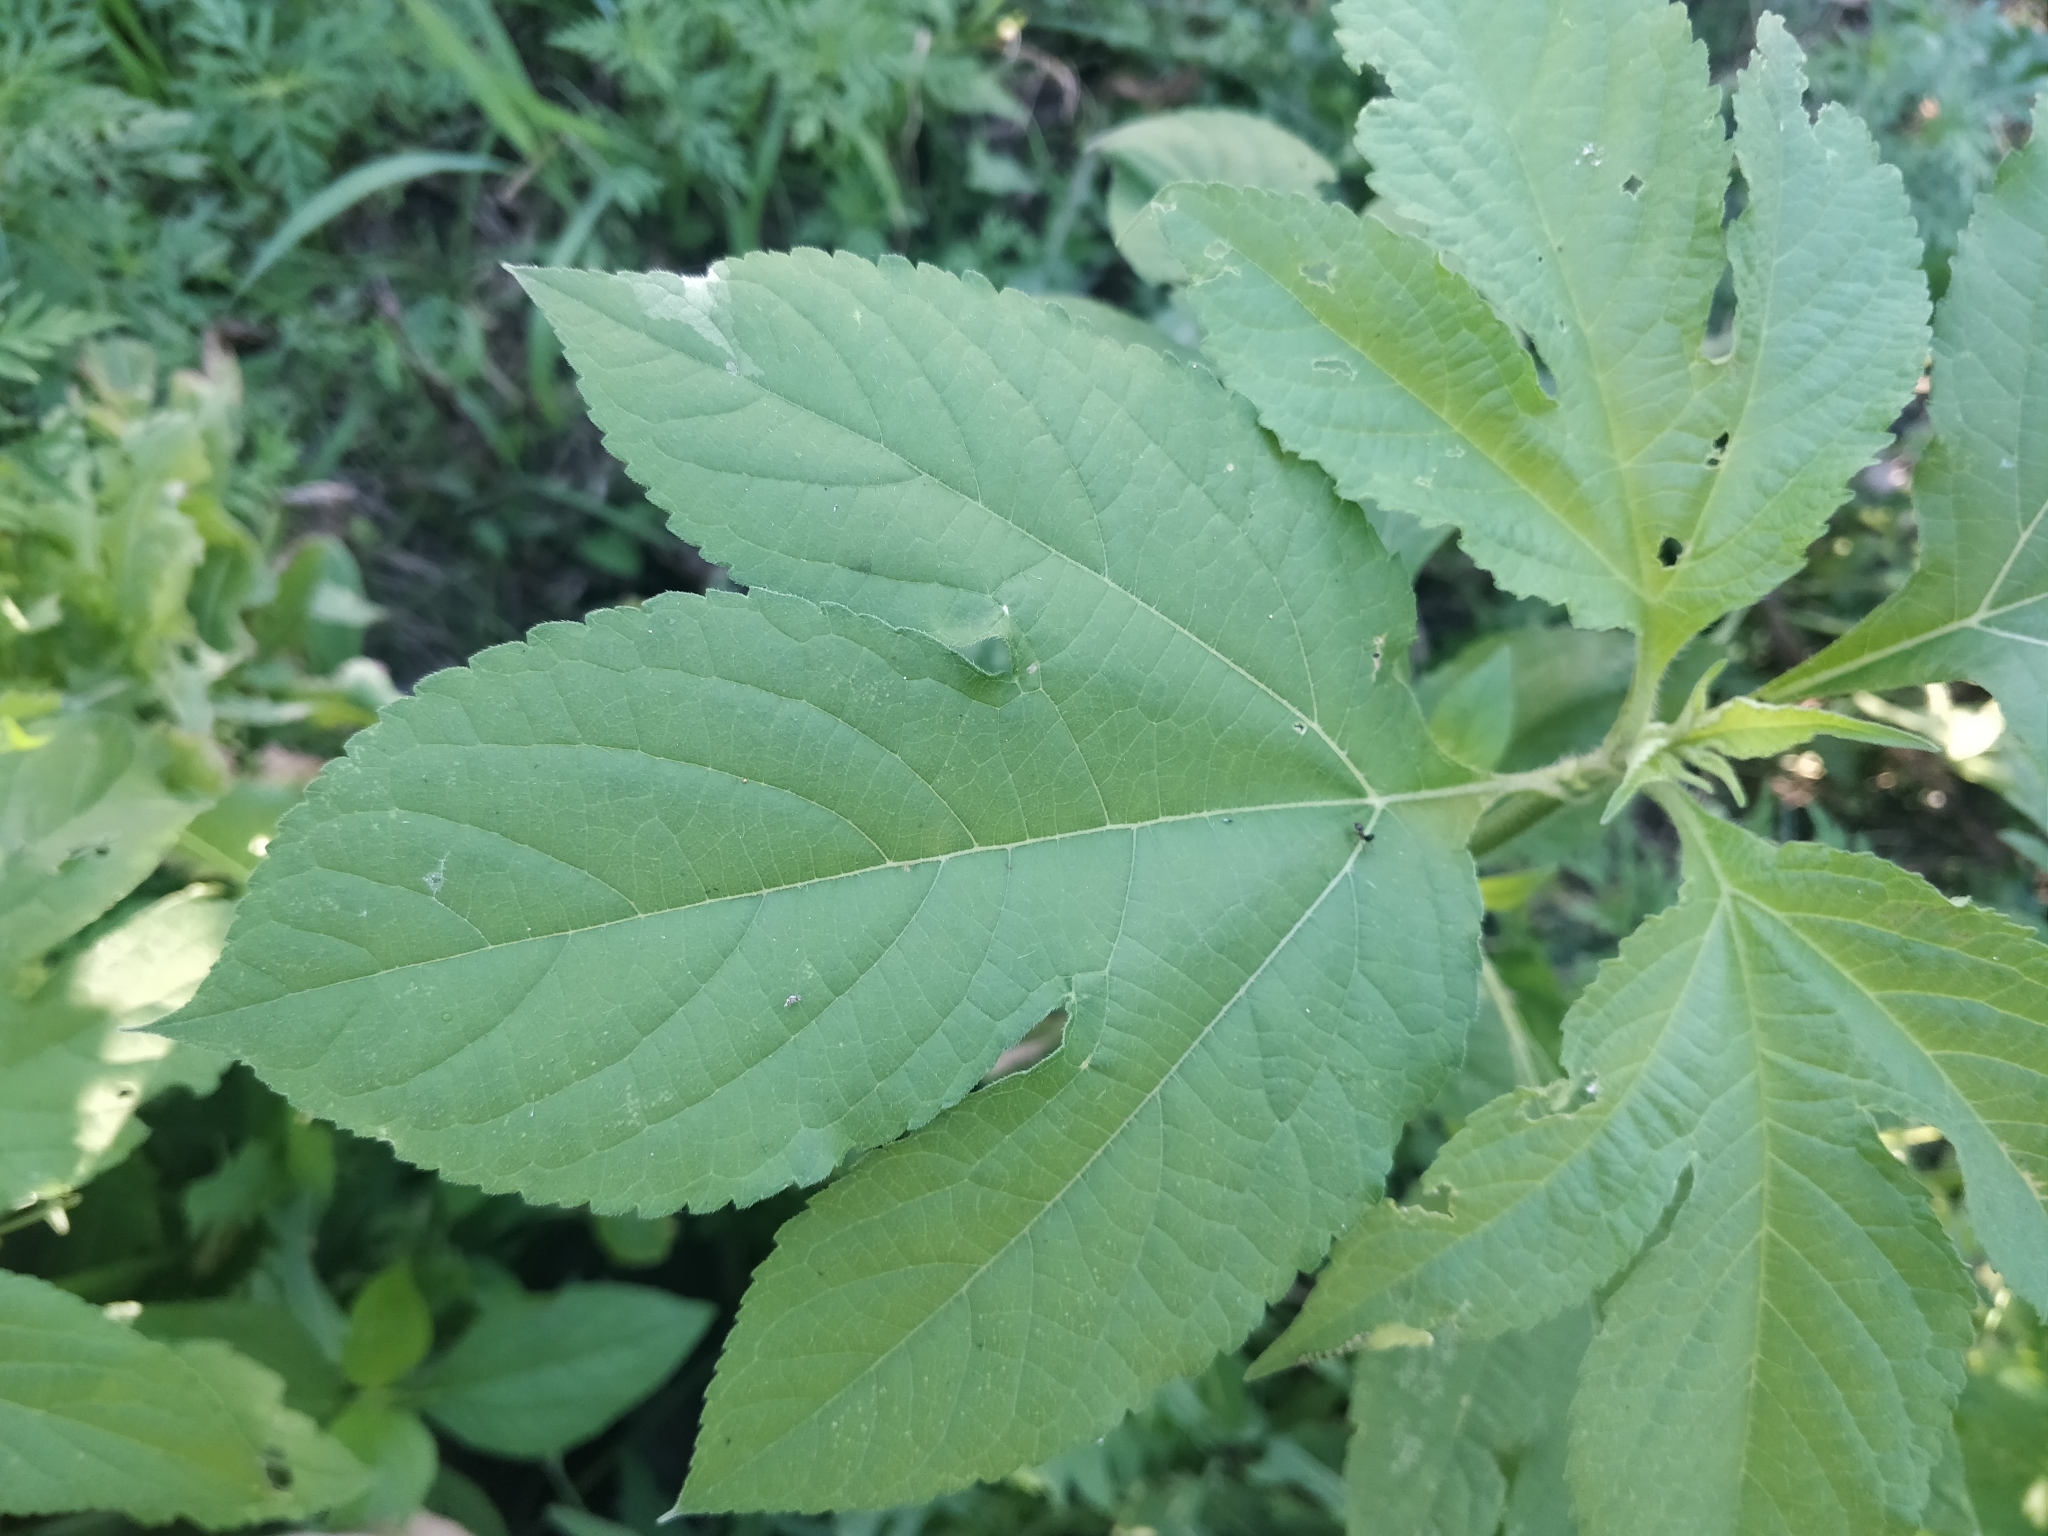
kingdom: Plantae
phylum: Tracheophyta
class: Magnoliopsida
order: Asterales
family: Asteraceae
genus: Ambrosia
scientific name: Ambrosia trifida
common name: Giant ragweed
